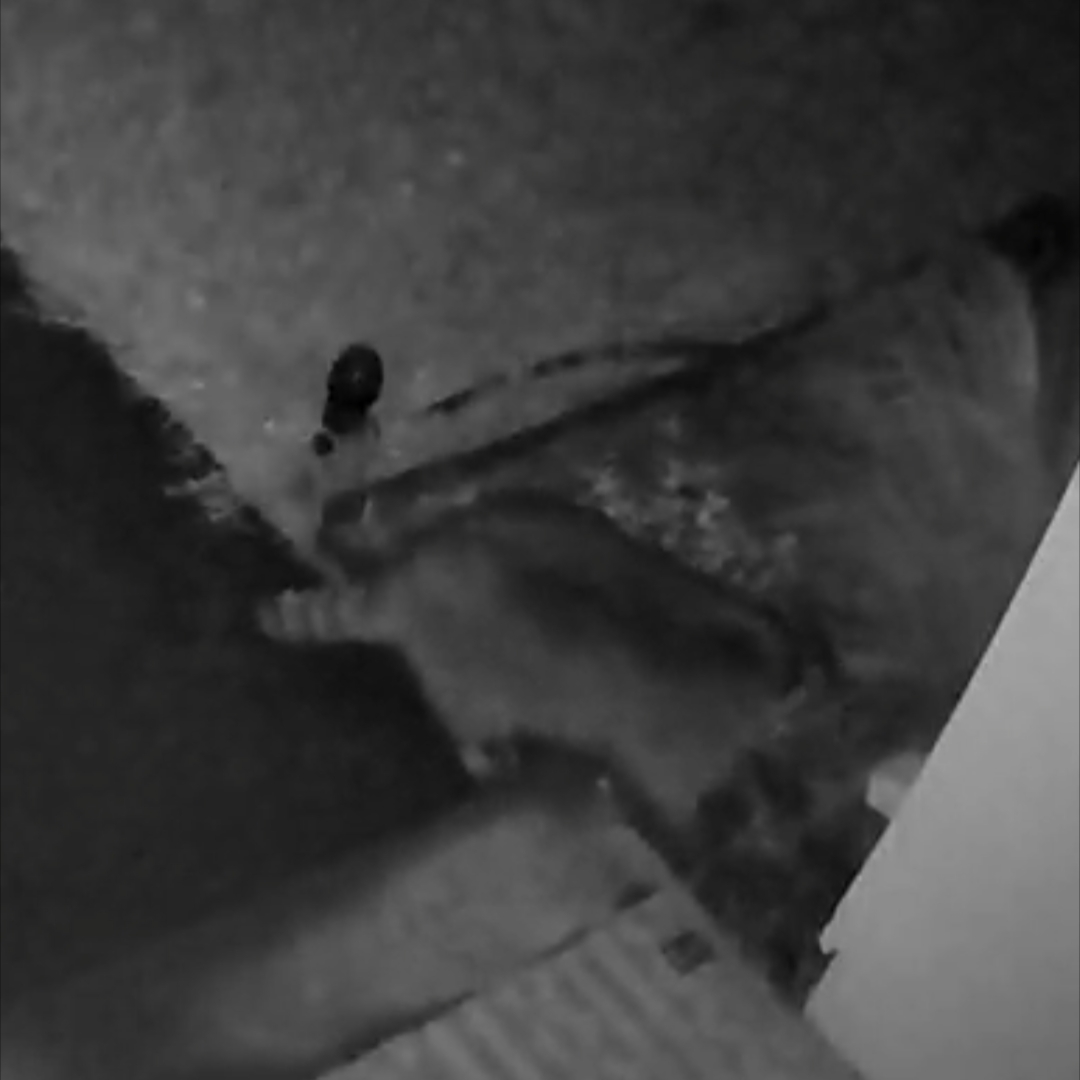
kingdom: Animalia
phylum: Chordata
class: Mammalia
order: Carnivora
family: Procyonidae
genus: Procyon
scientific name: Procyon lotor
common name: Raccoon
